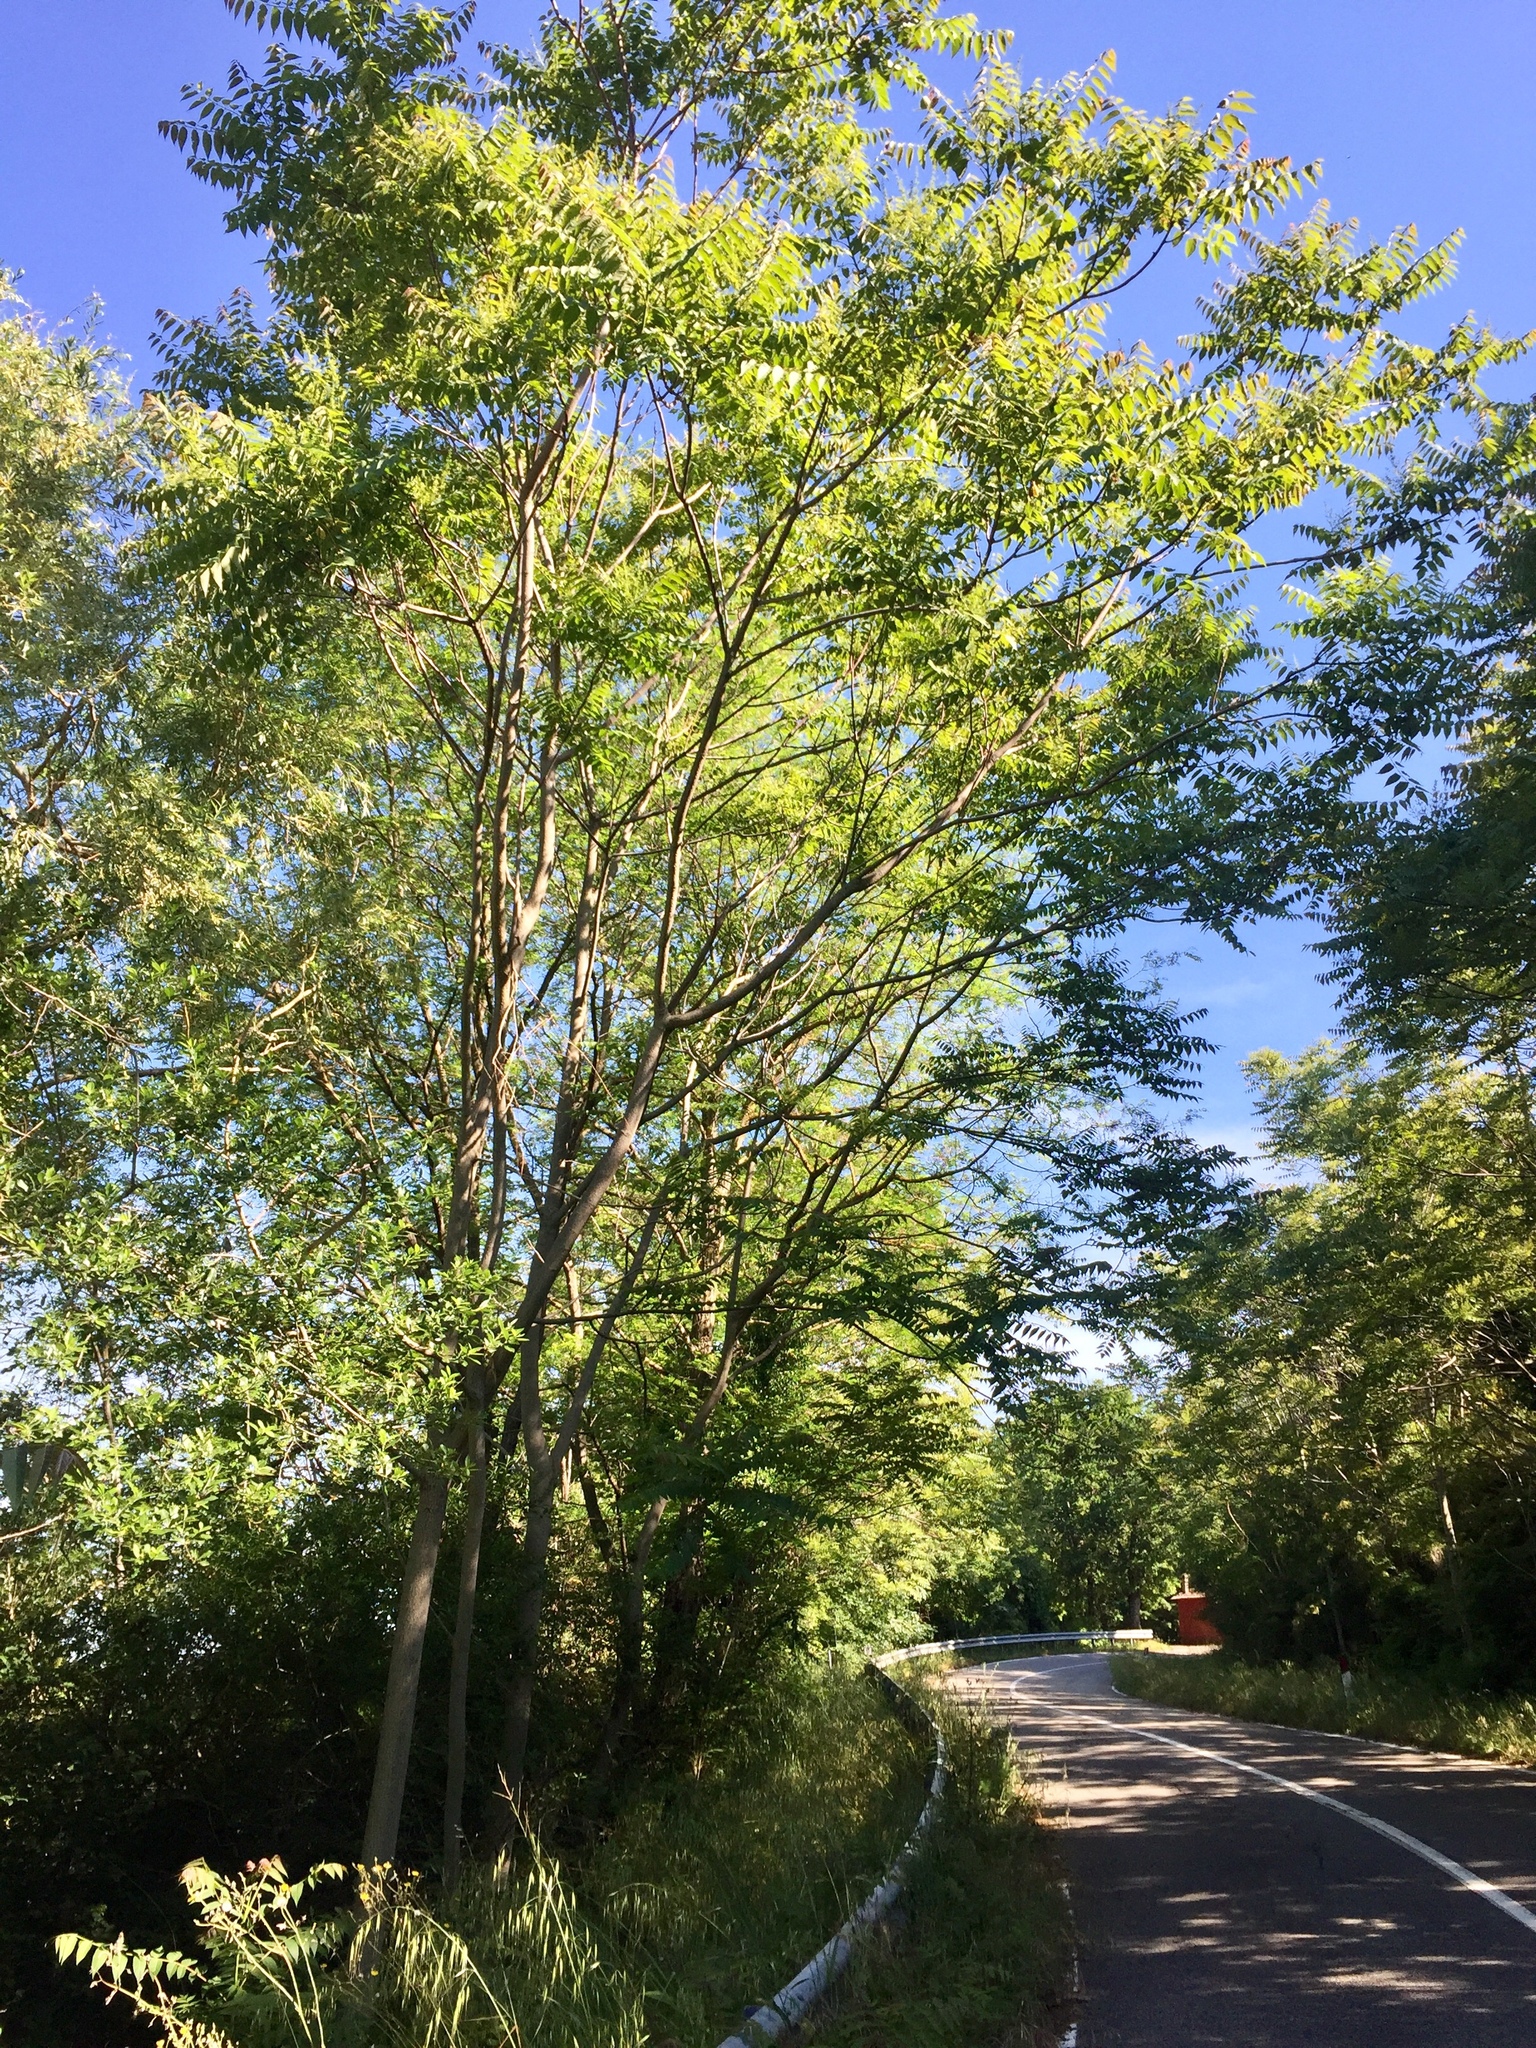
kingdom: Plantae
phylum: Tracheophyta
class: Magnoliopsida
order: Sapindales
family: Simaroubaceae
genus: Ailanthus
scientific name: Ailanthus altissima
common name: Tree-of-heaven
